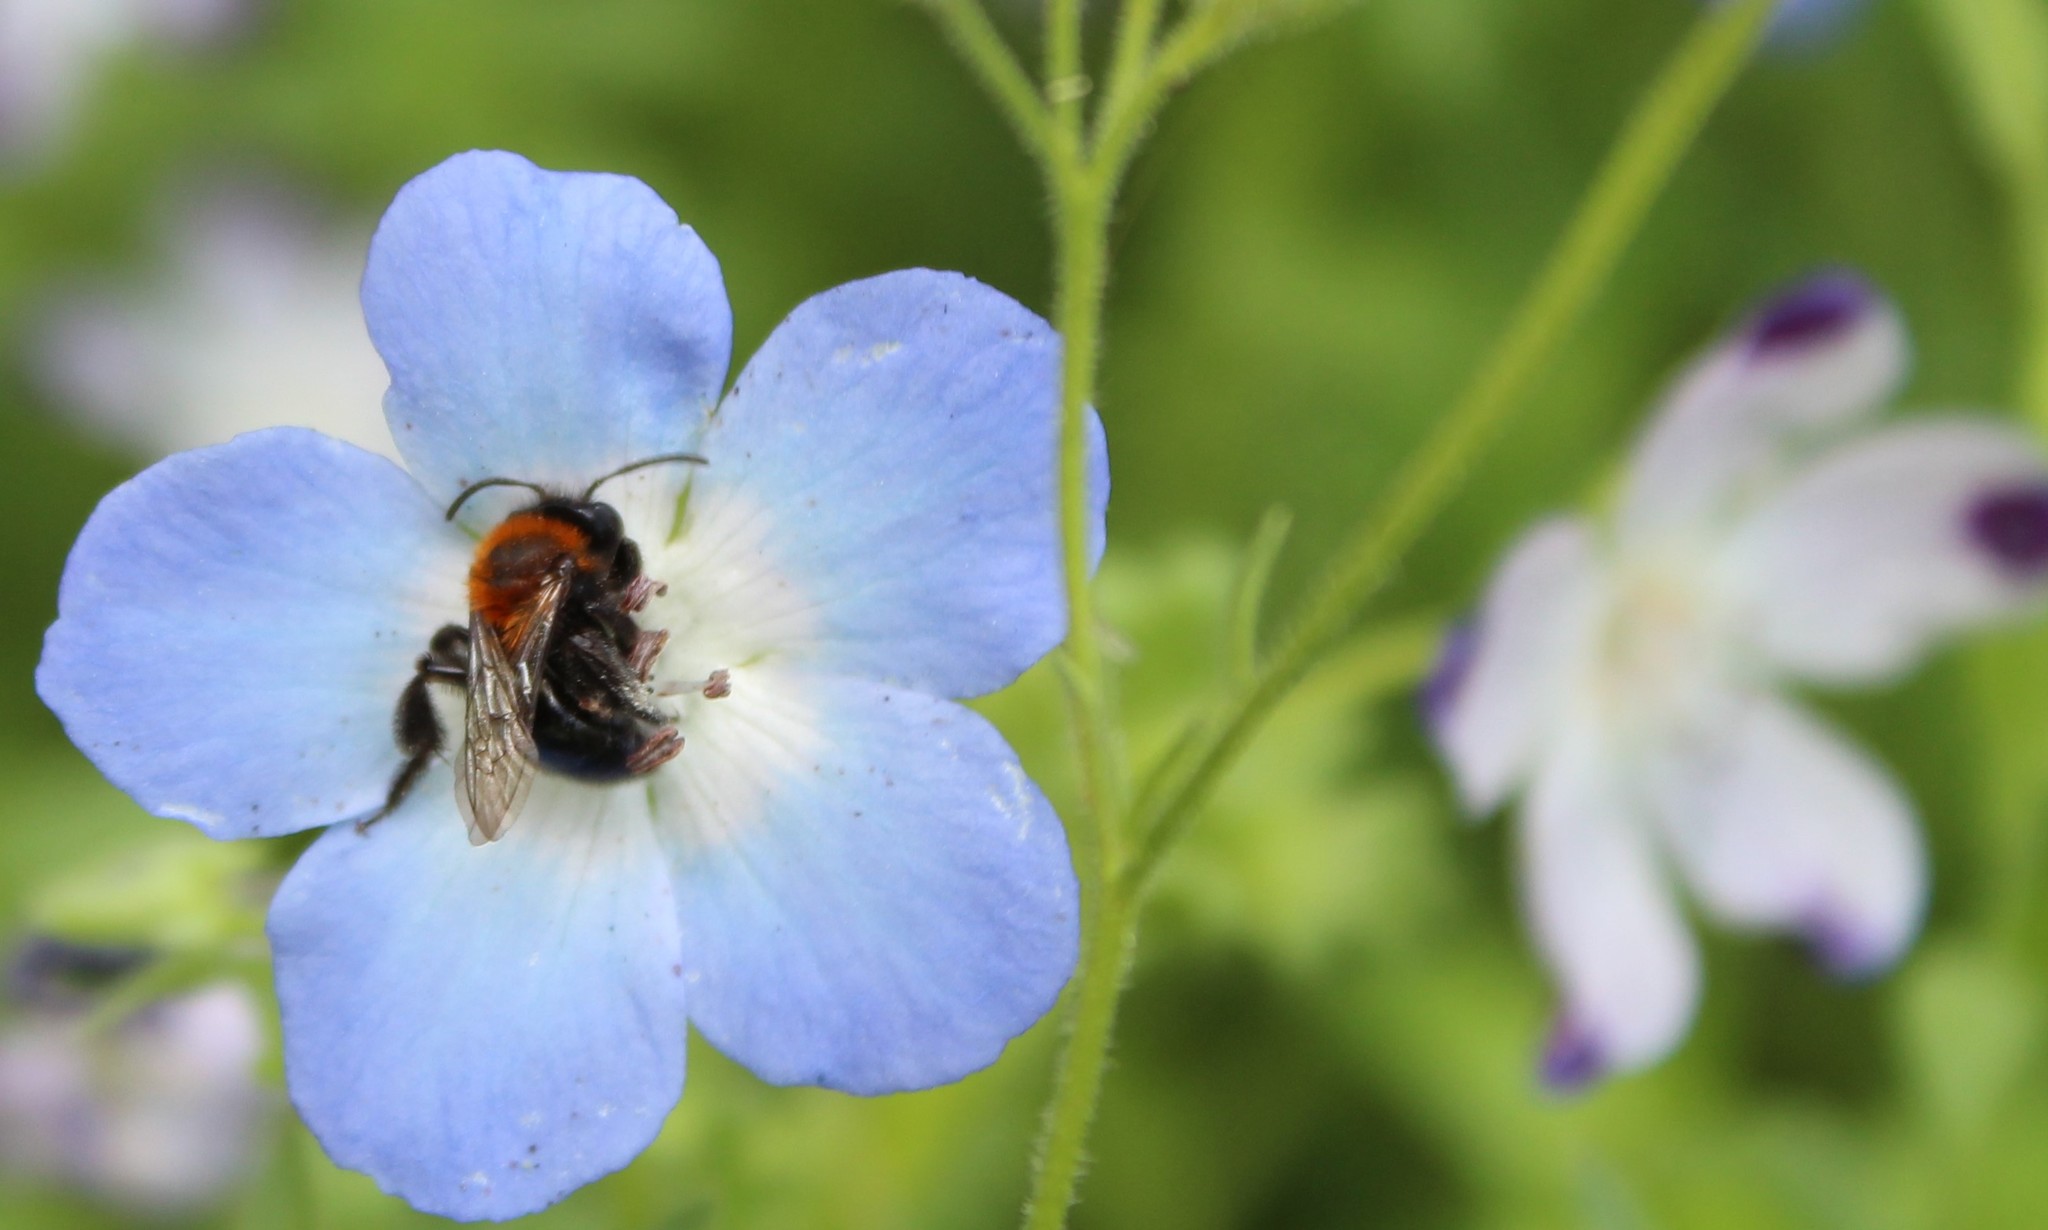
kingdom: Animalia
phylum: Arthropoda
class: Insecta
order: Hymenoptera
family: Andrenidae
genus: Andrena
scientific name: Andrena nigripes
